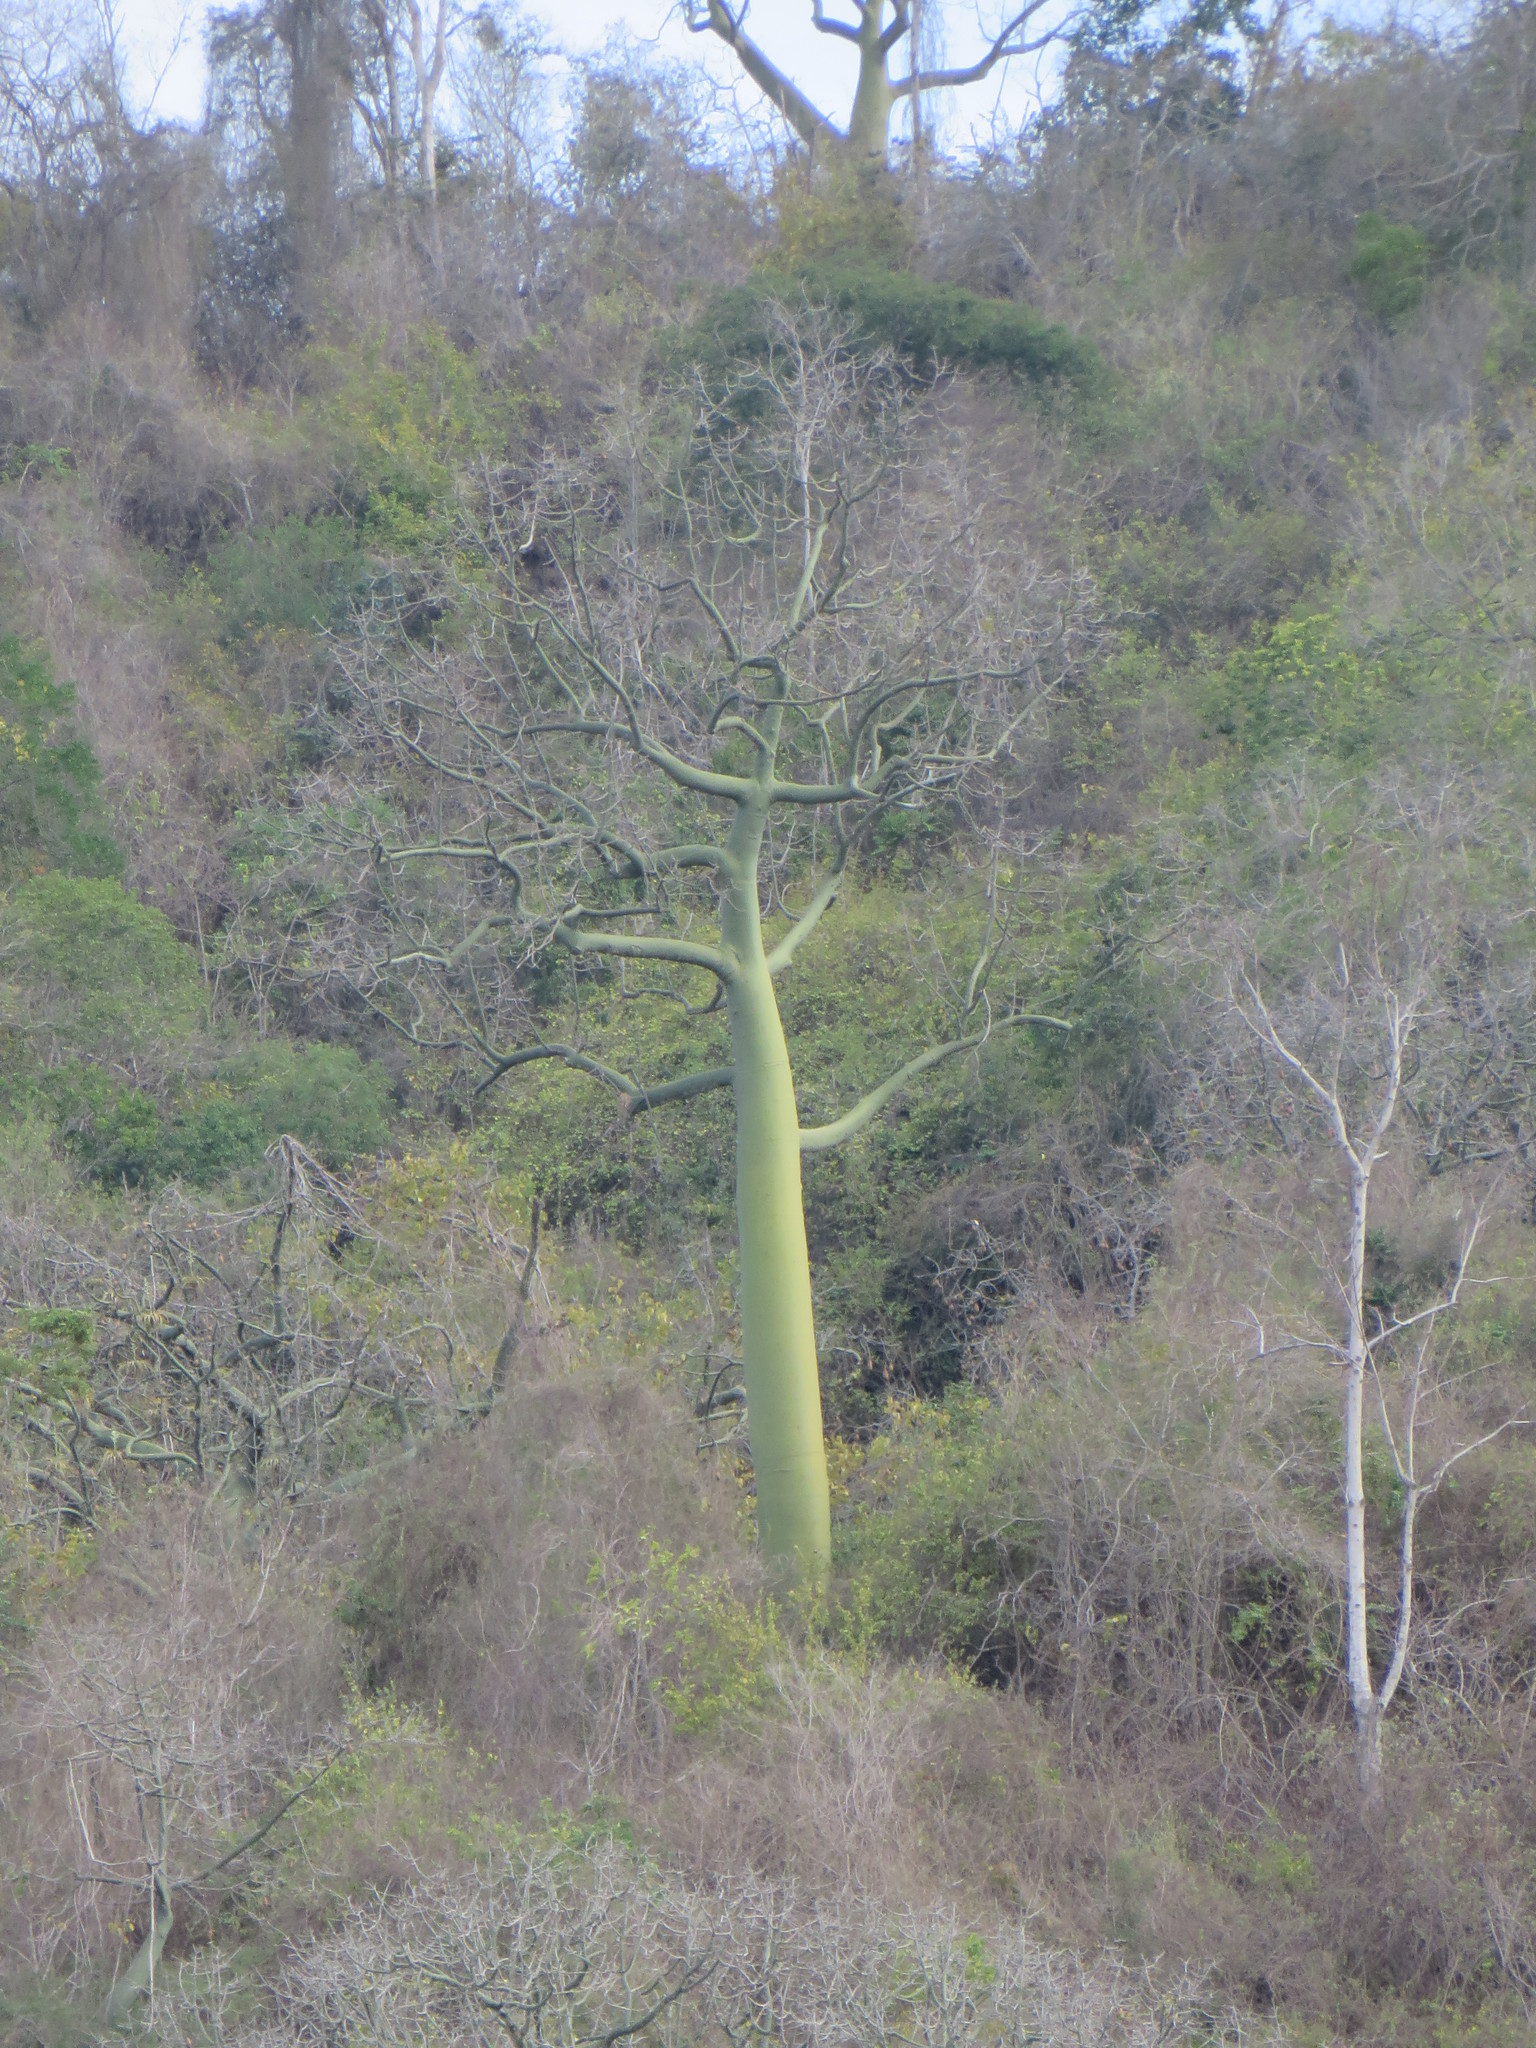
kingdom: Plantae
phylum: Tracheophyta
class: Magnoliopsida
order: Malvales
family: Malvaceae
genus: Ceiba
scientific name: Ceiba trischistandra
